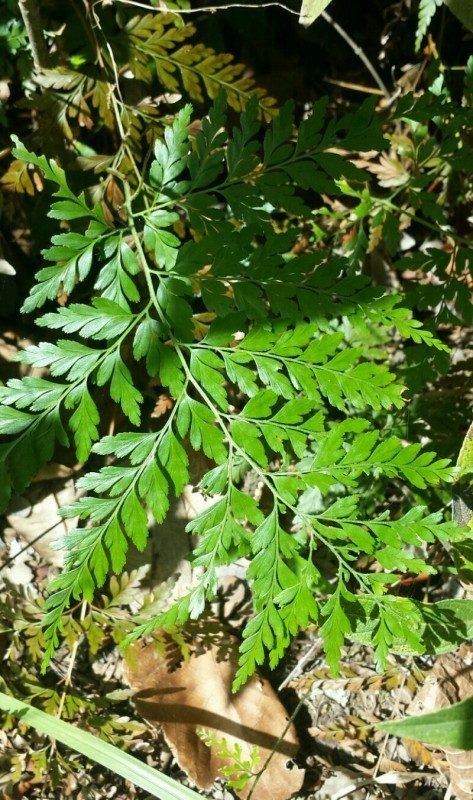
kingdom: Plantae
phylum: Tracheophyta
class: Polypodiopsida
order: Schizaeales
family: Anemiaceae
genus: Anemia
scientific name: Anemia adiantifolia
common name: Pine fern
